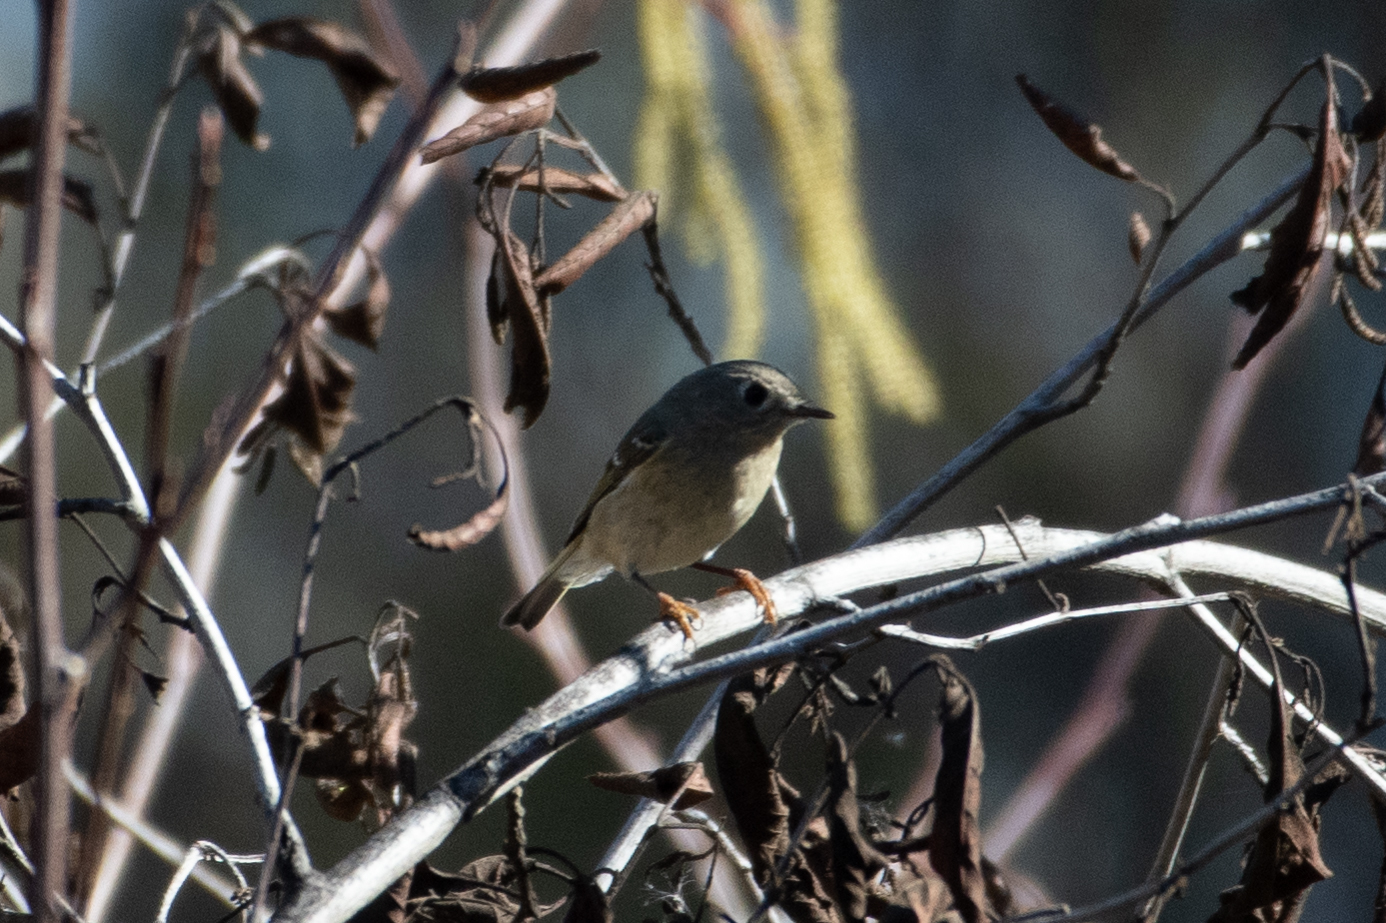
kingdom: Animalia
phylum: Chordata
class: Aves
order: Passeriformes
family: Regulidae
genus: Regulus
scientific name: Regulus calendula
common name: Ruby-crowned kinglet
